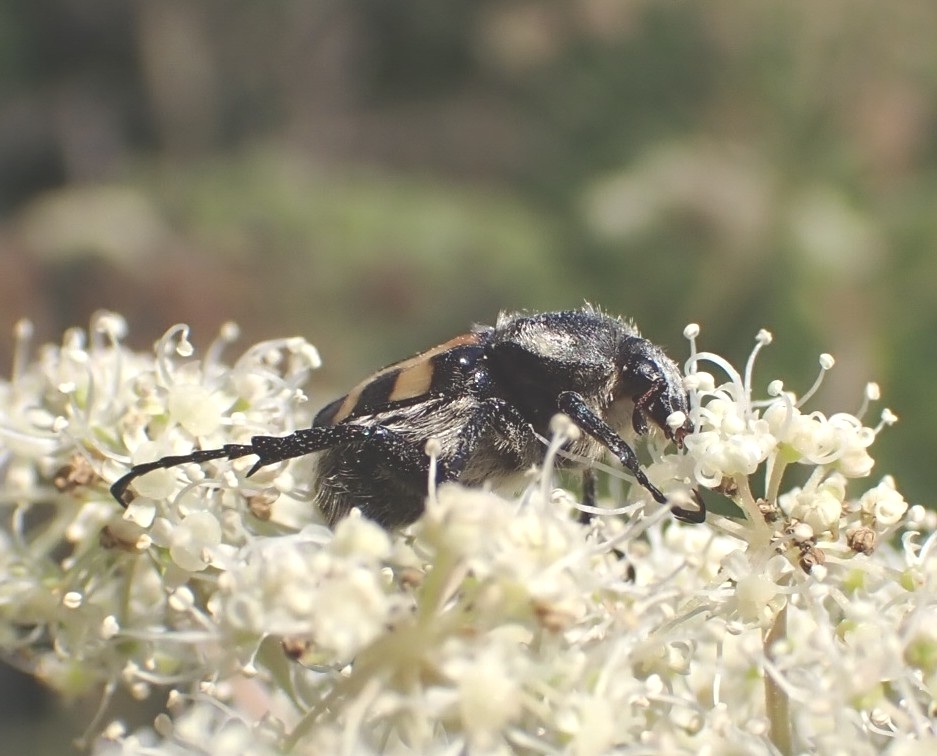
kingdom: Animalia
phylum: Arthropoda
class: Insecta
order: Coleoptera
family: Scarabaeidae
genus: Trichius
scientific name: Trichius fasciatus
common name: Bee beetle
